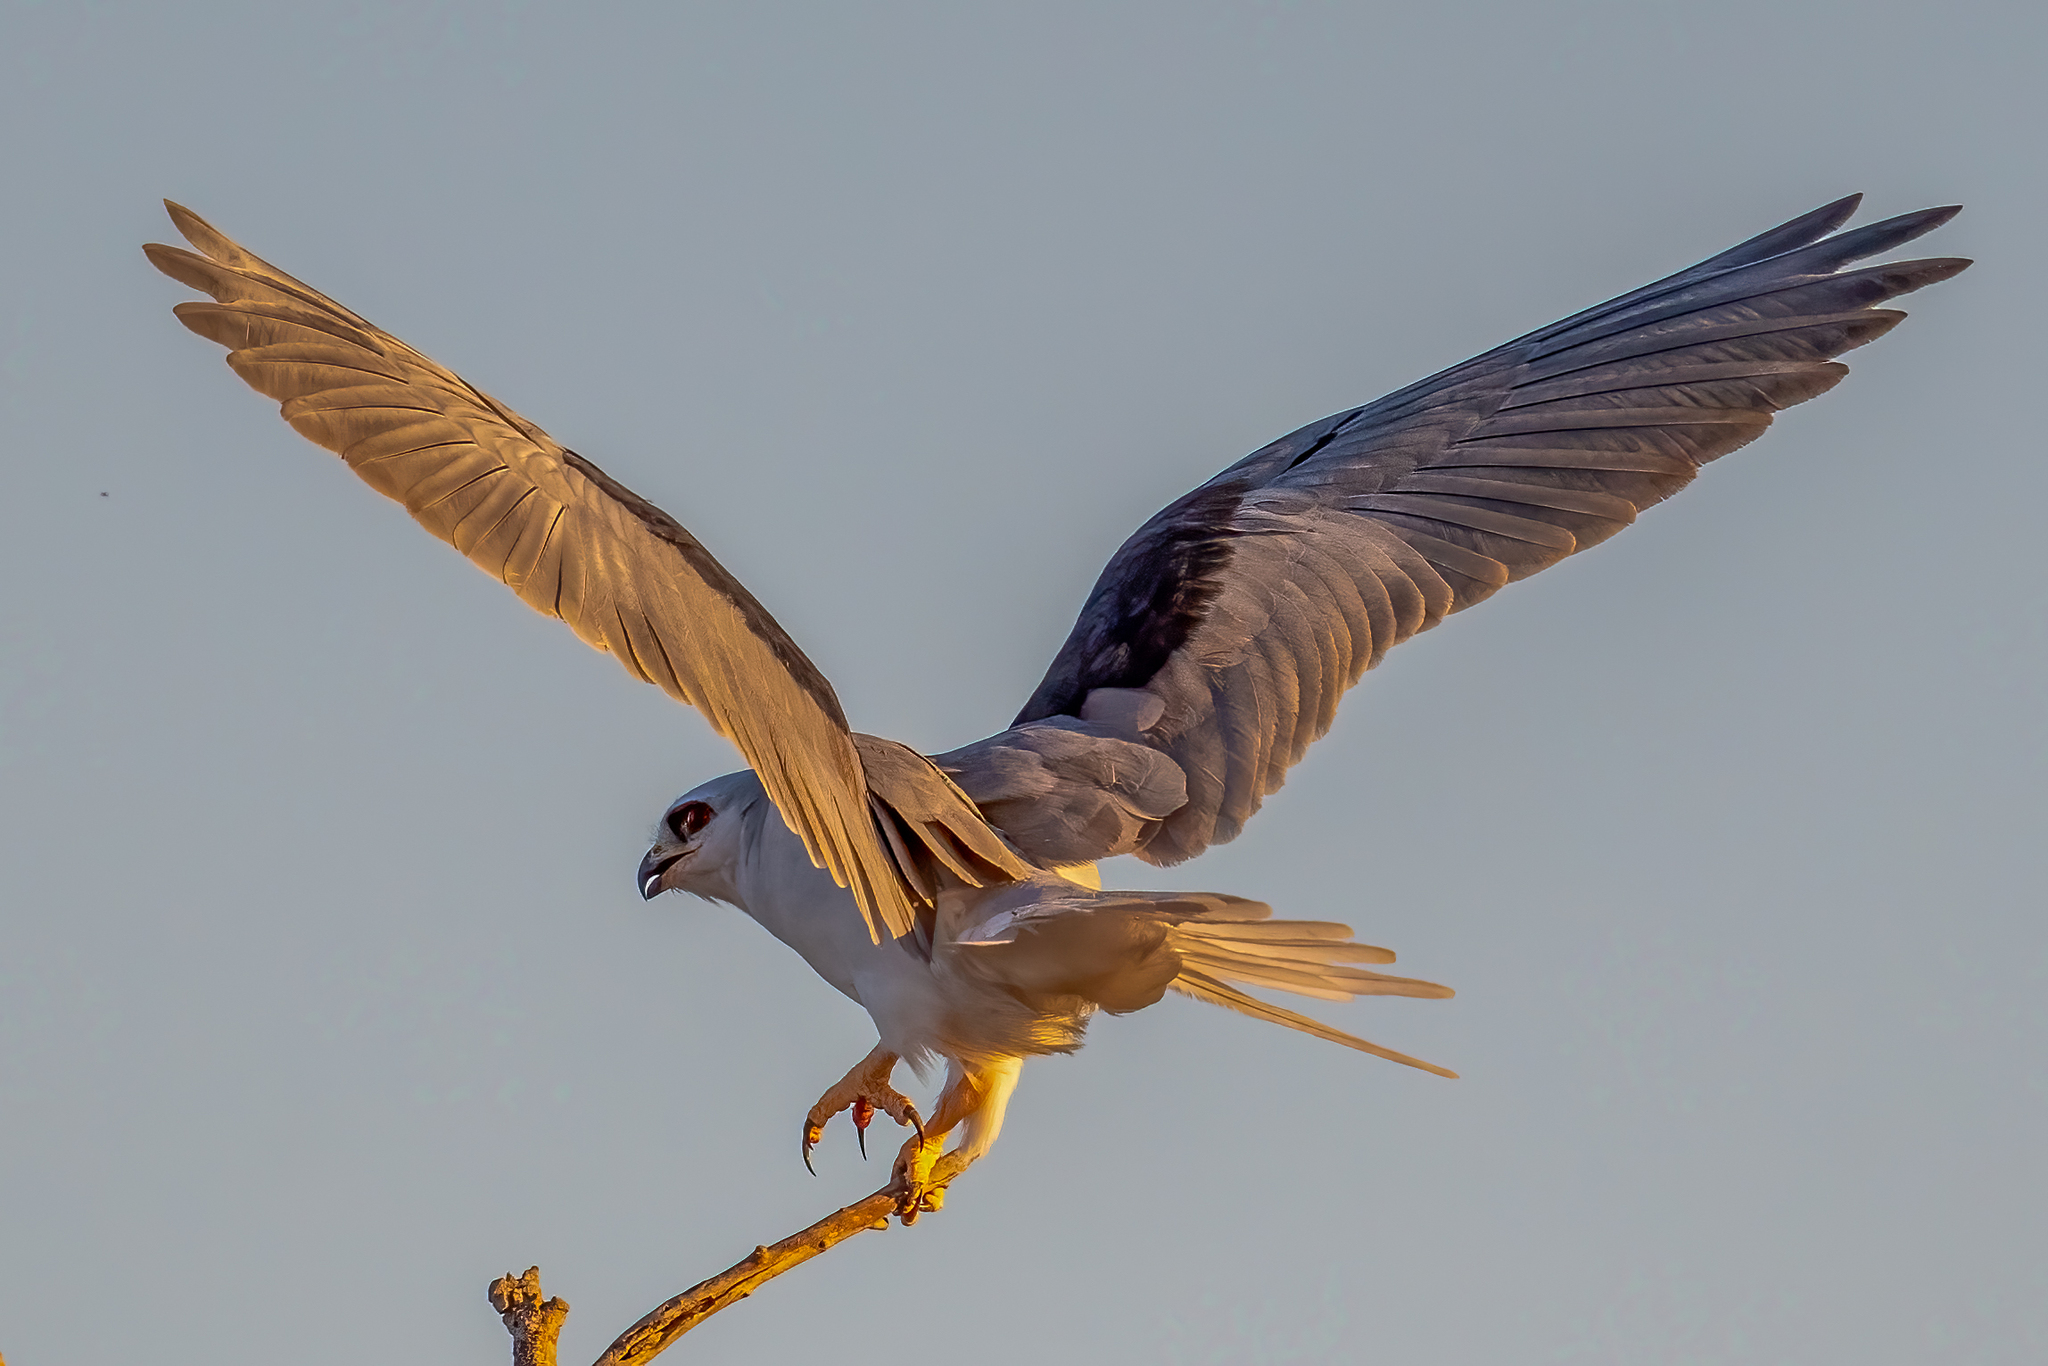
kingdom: Animalia
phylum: Chordata
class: Aves
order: Accipitriformes
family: Accipitridae
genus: Elanus
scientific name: Elanus leucurus
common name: White-tailed kite
